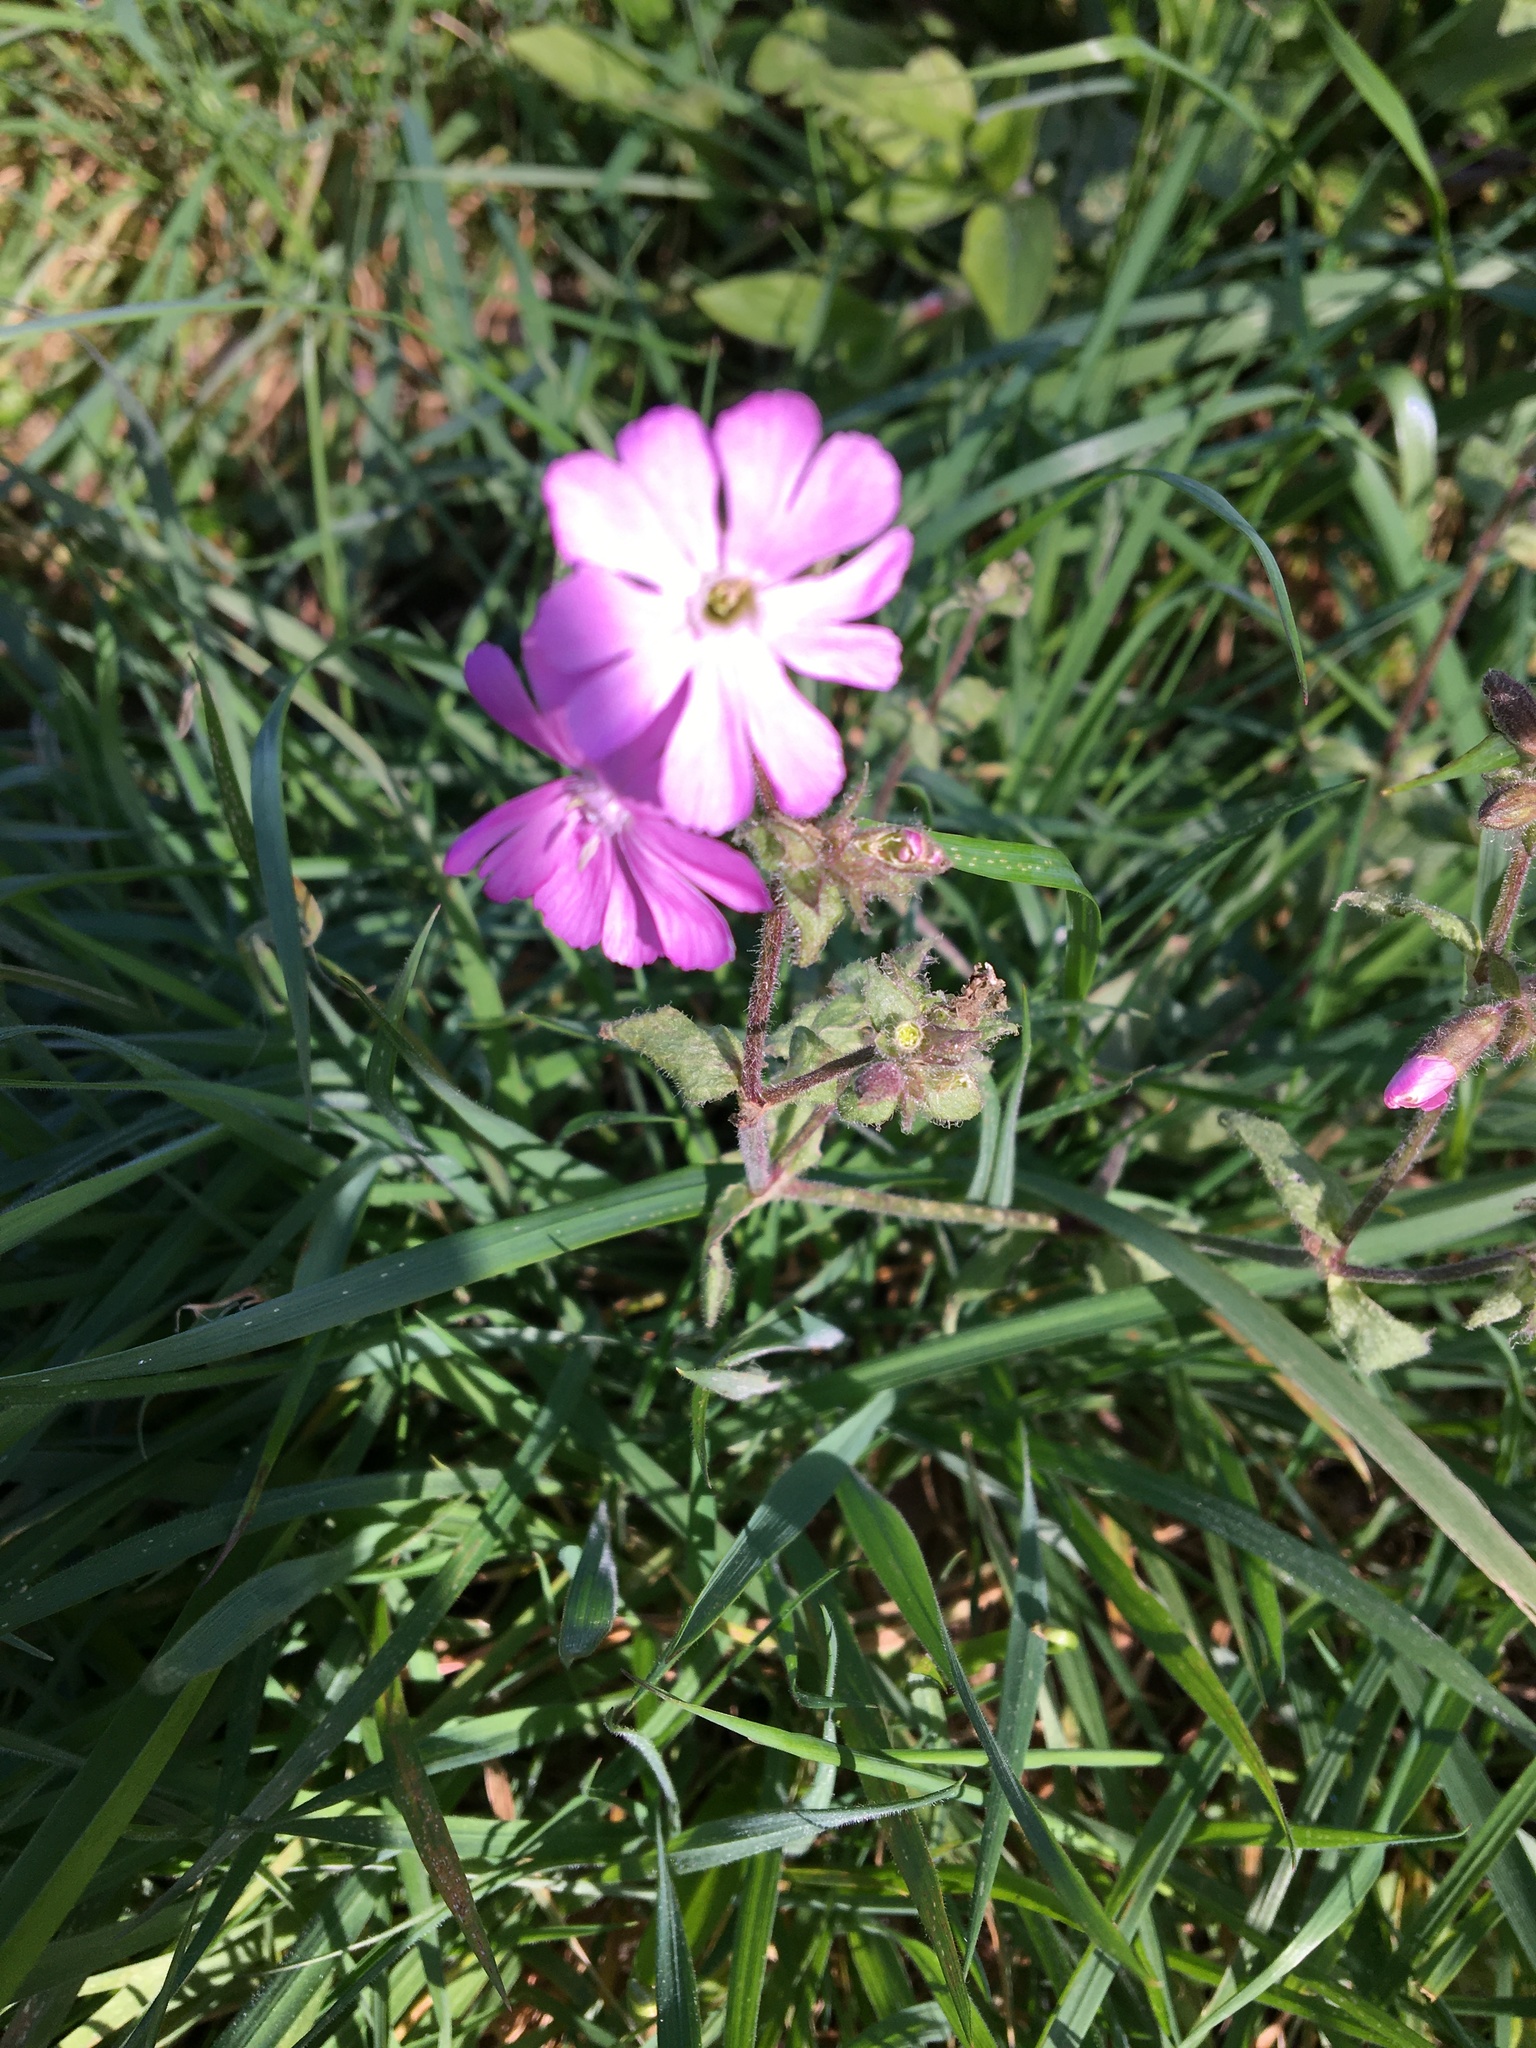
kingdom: Plantae
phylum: Tracheophyta
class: Magnoliopsida
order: Caryophyllales
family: Caryophyllaceae
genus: Silene
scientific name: Silene dioica
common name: Red campion
